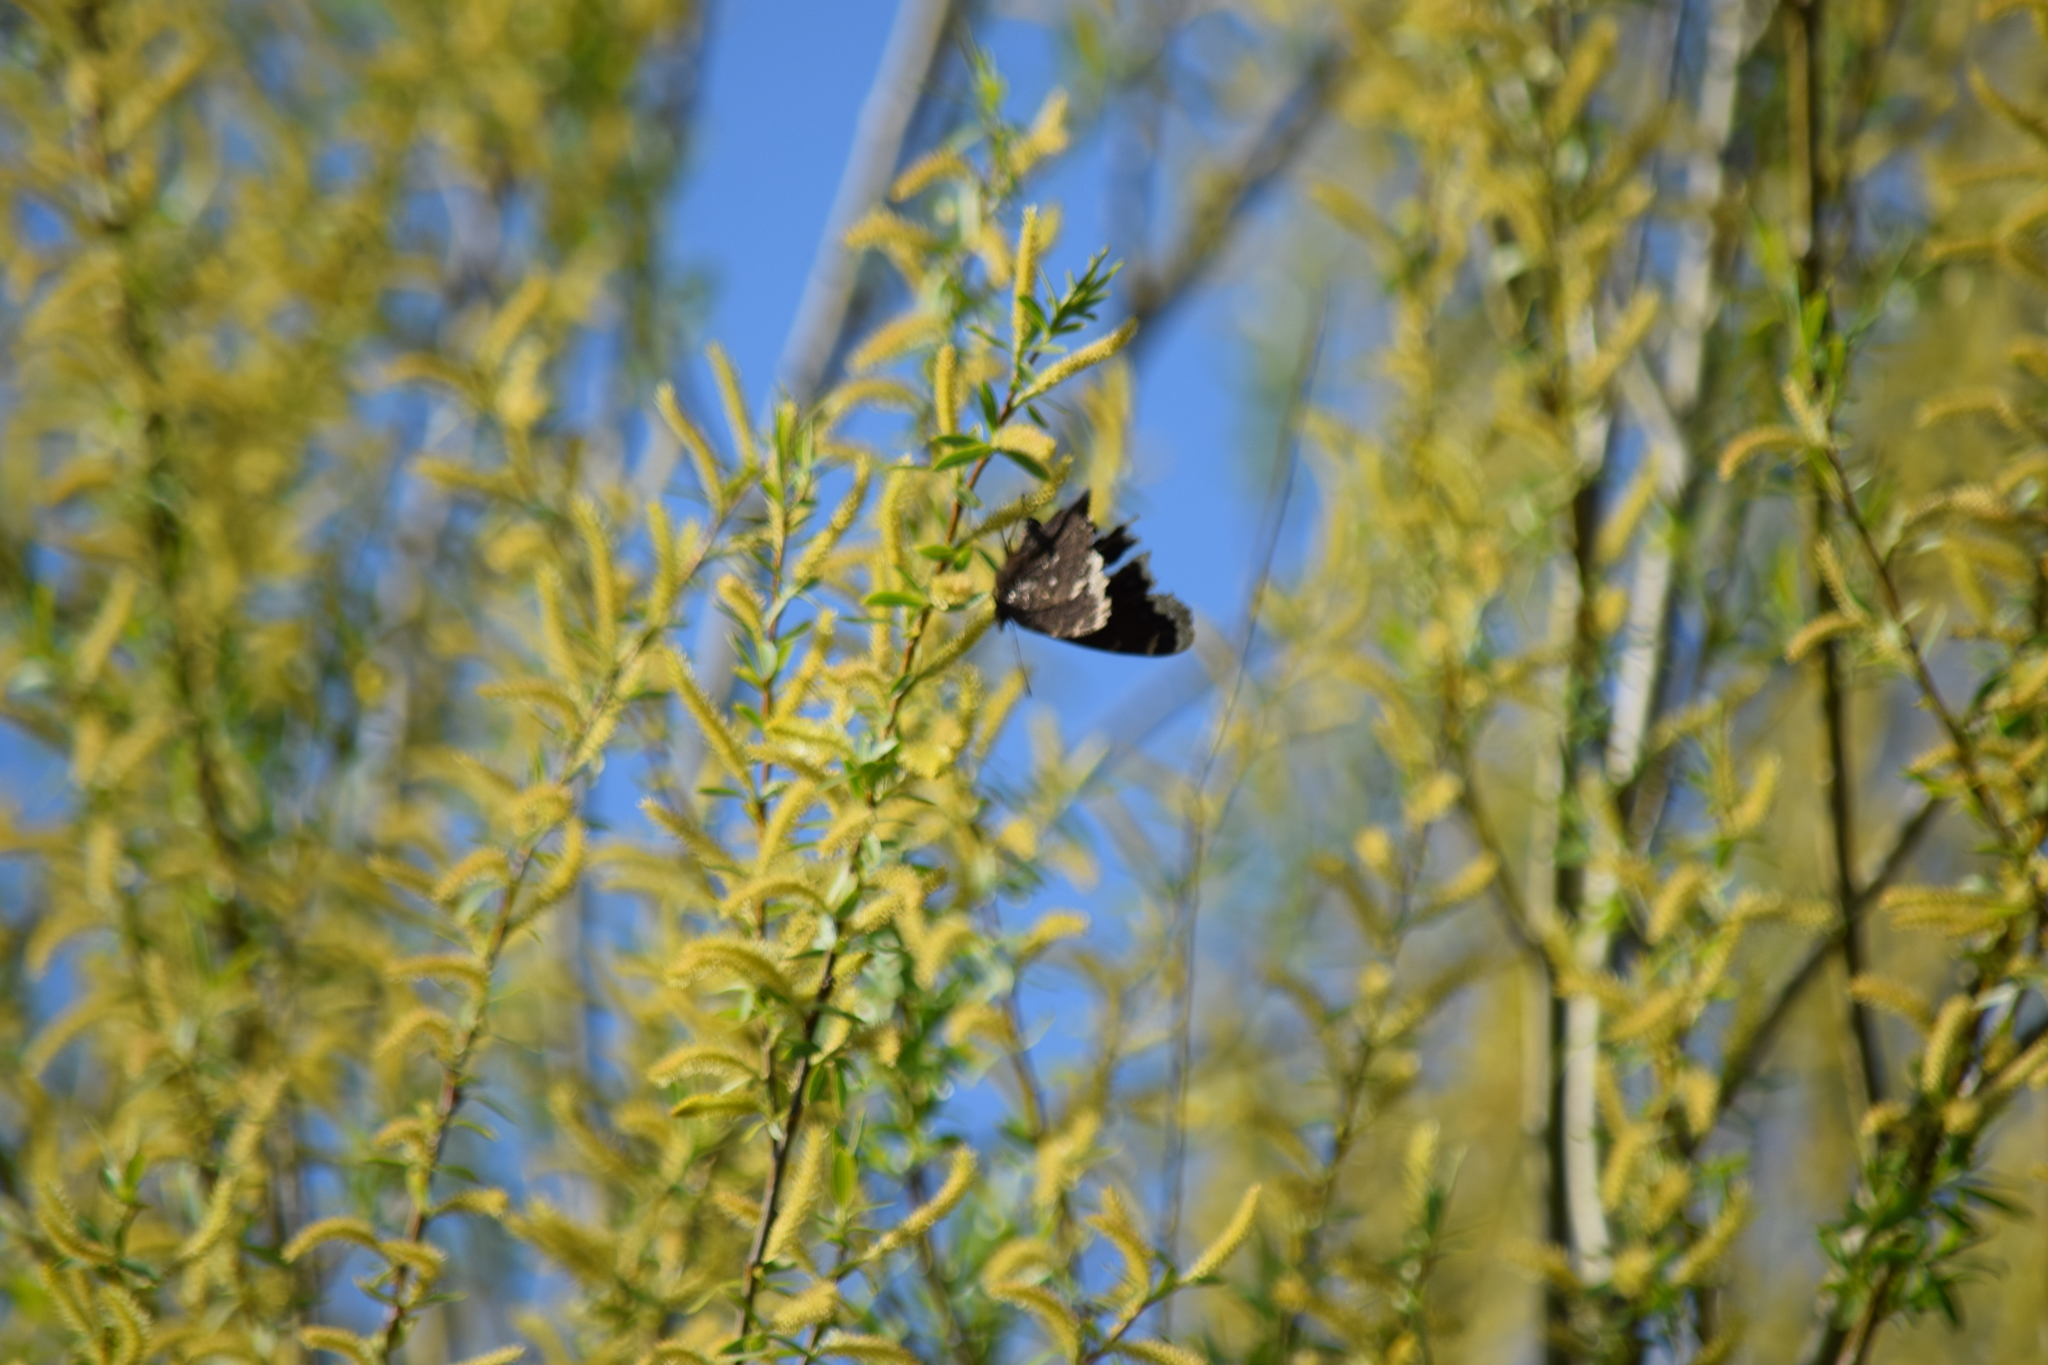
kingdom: Animalia
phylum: Arthropoda
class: Insecta
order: Lepidoptera
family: Nymphalidae
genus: Nymphalis
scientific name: Nymphalis antiopa
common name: Camberwell beauty
